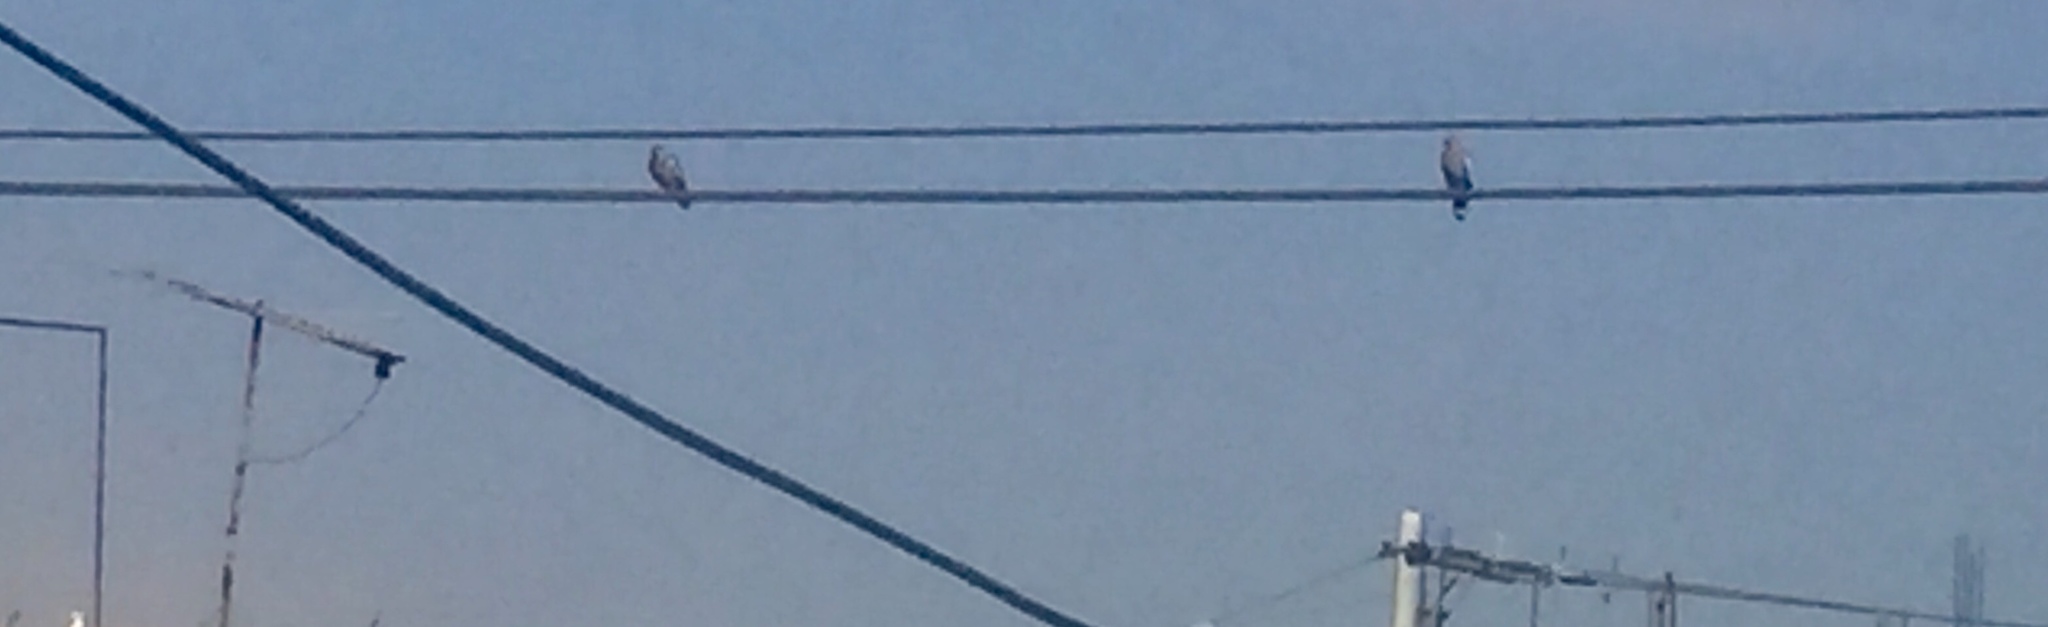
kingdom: Animalia
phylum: Chordata
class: Aves
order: Columbiformes
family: Columbidae
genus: Zenaida
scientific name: Zenaida asiatica
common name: White-winged dove
